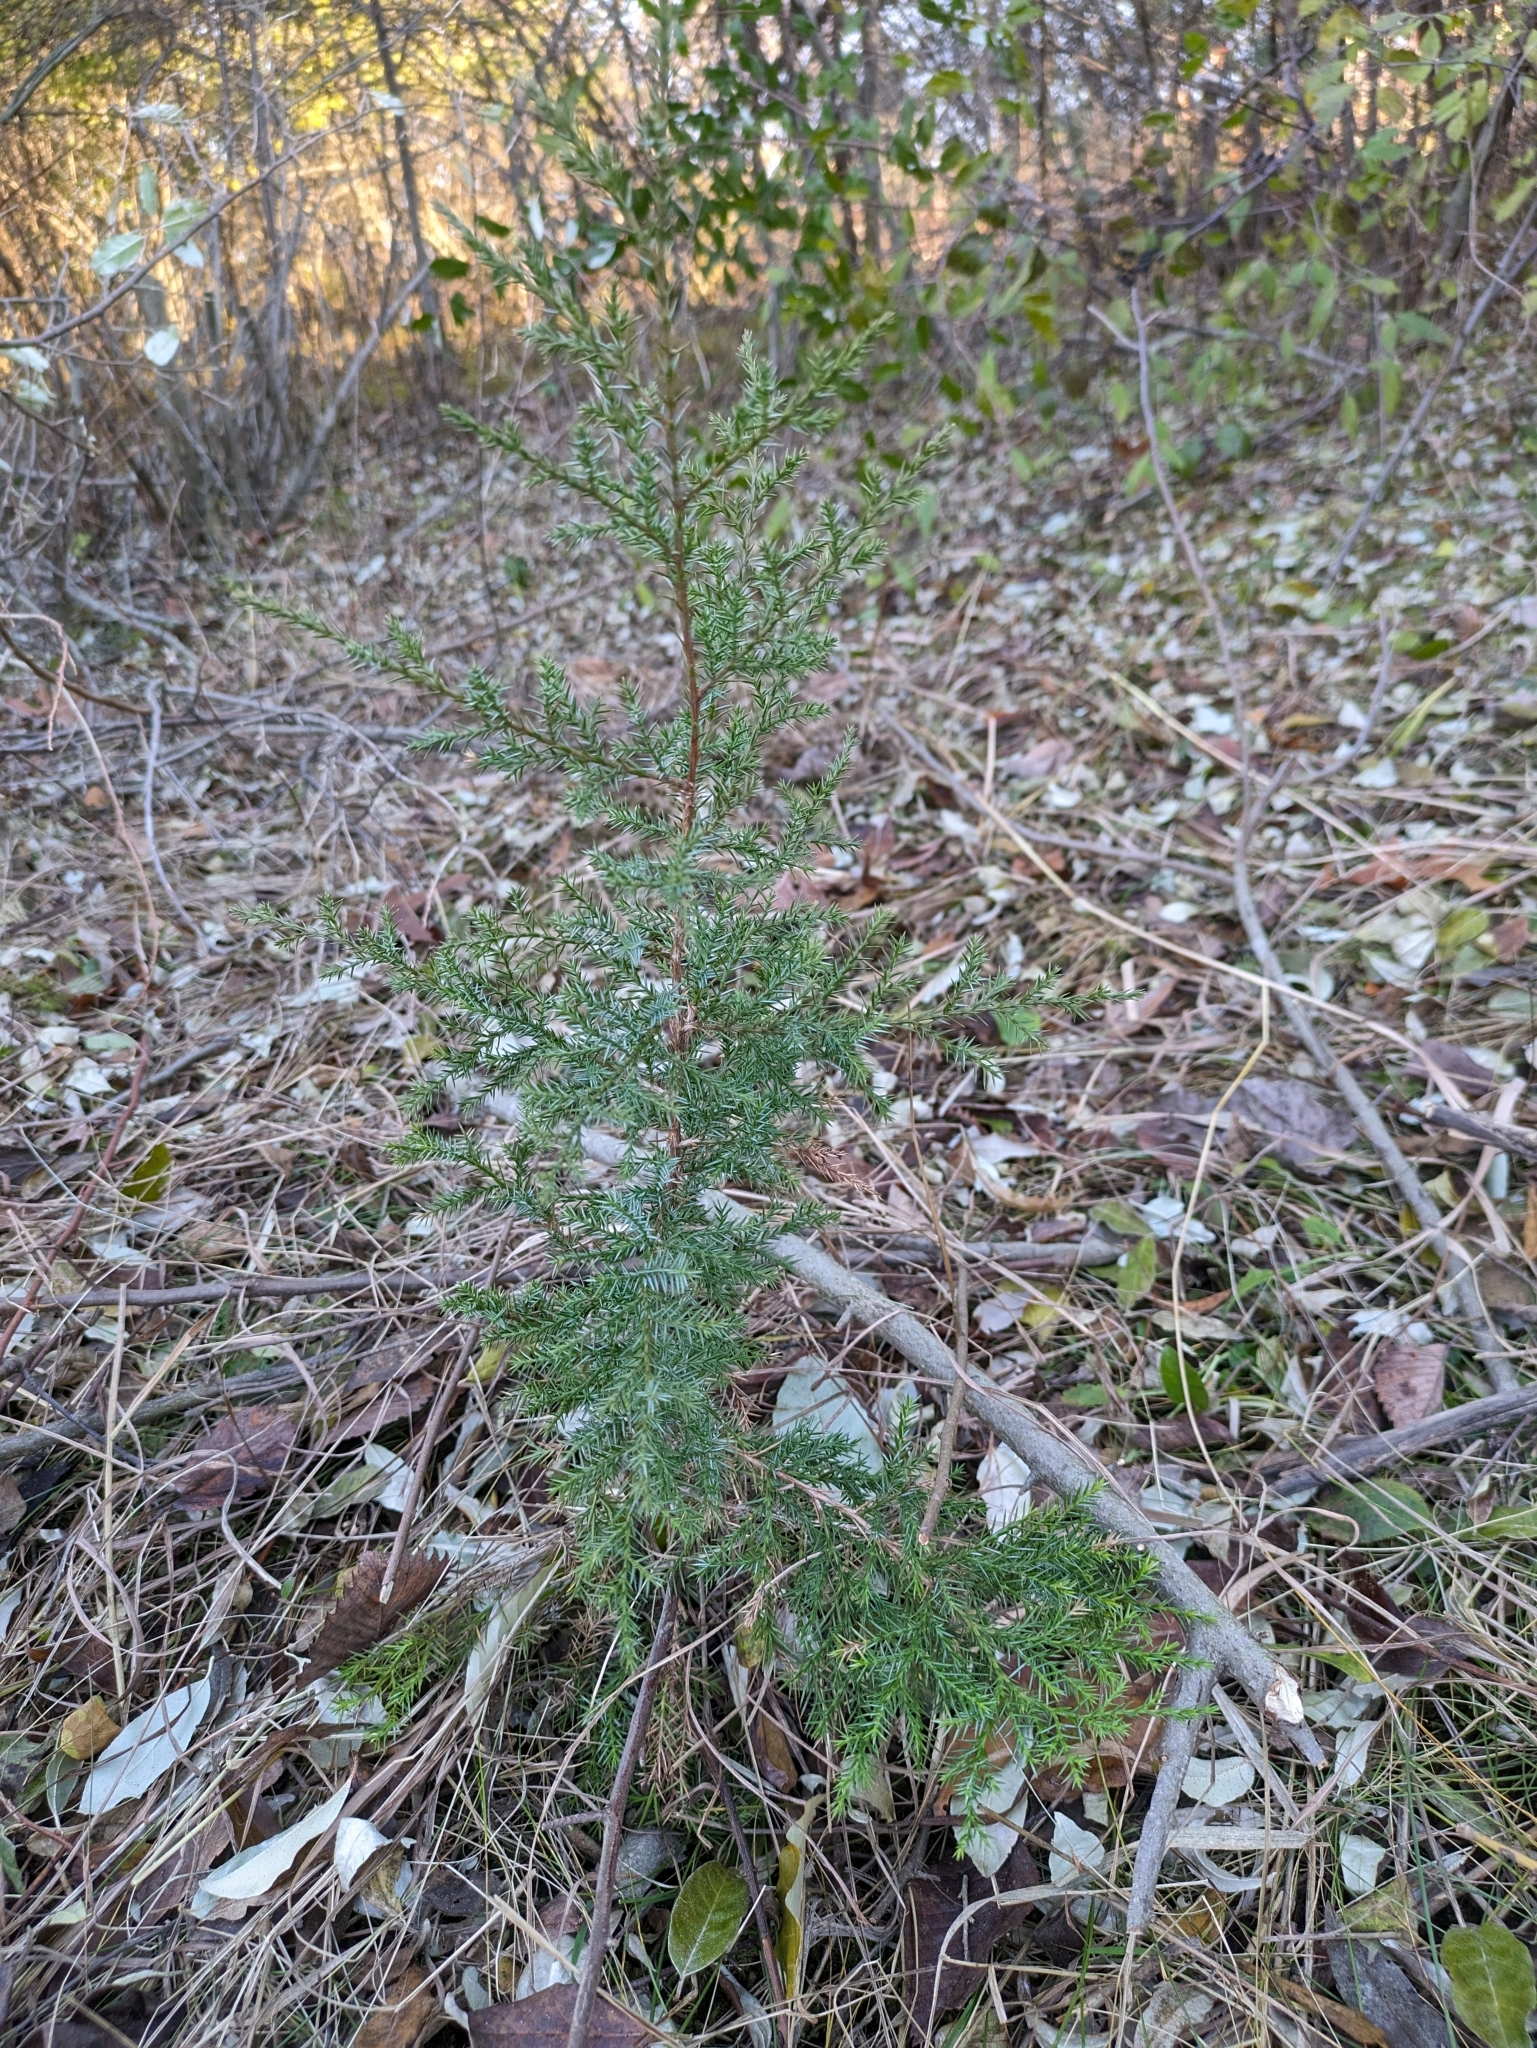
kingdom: Plantae
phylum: Tracheophyta
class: Pinopsida
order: Pinales
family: Cupressaceae
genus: Juniperus
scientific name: Juniperus virginiana
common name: Red juniper
